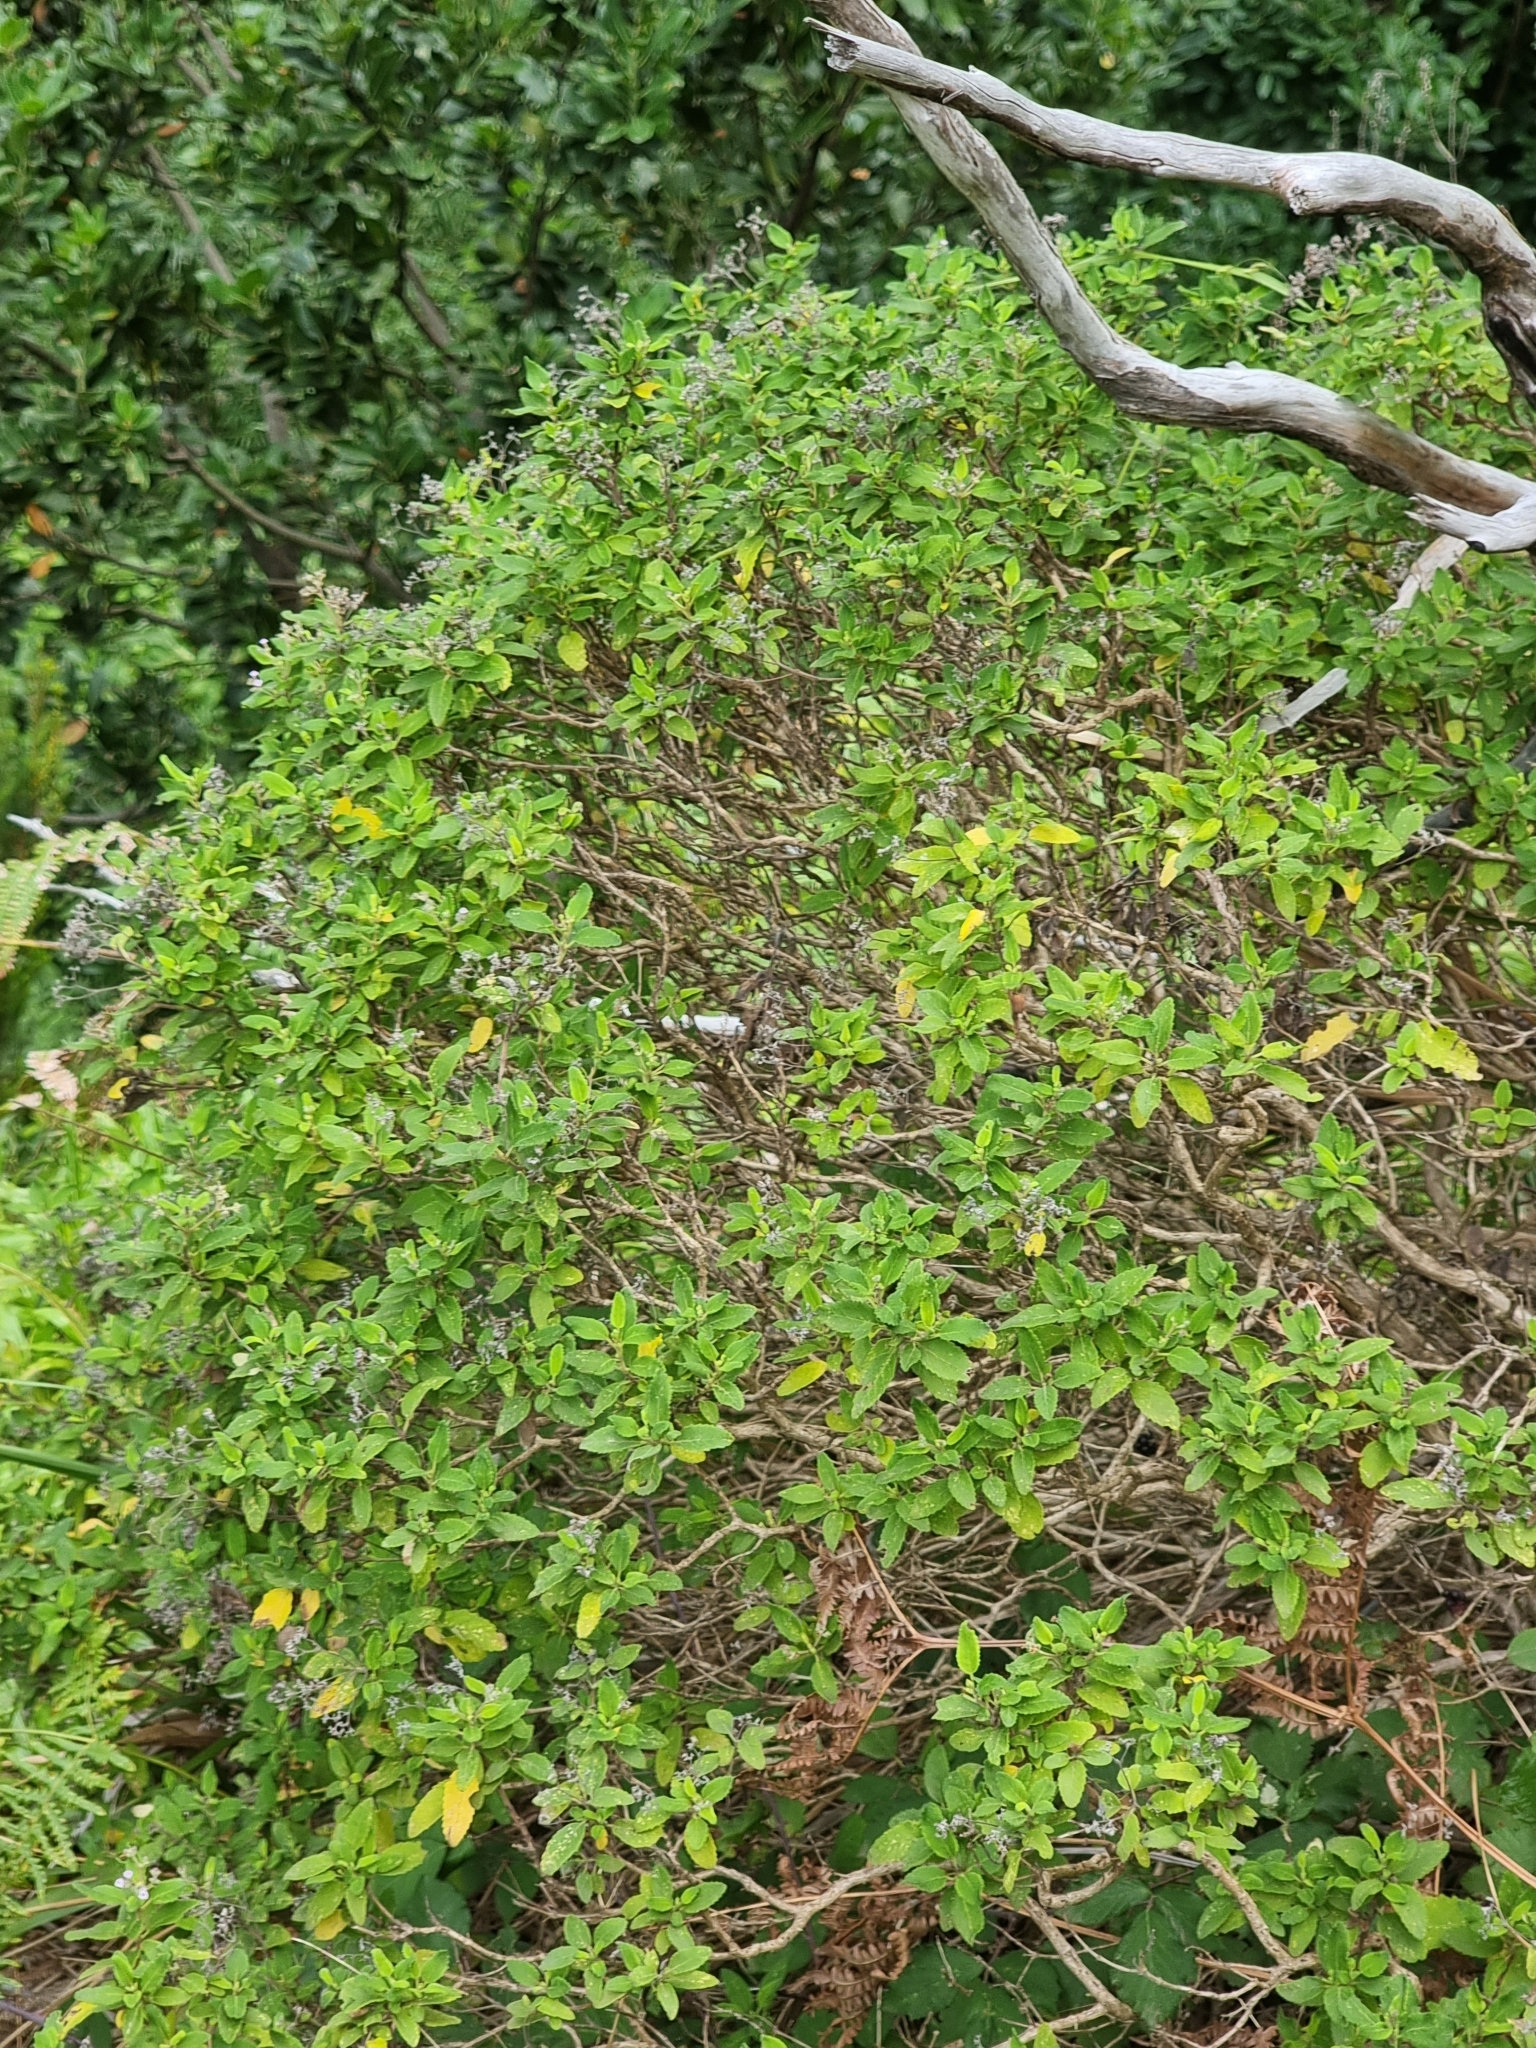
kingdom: Plantae
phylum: Tracheophyta
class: Magnoliopsida
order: Lamiales
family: Lamiaceae
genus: Bystropogon
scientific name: Bystropogon punctatus
